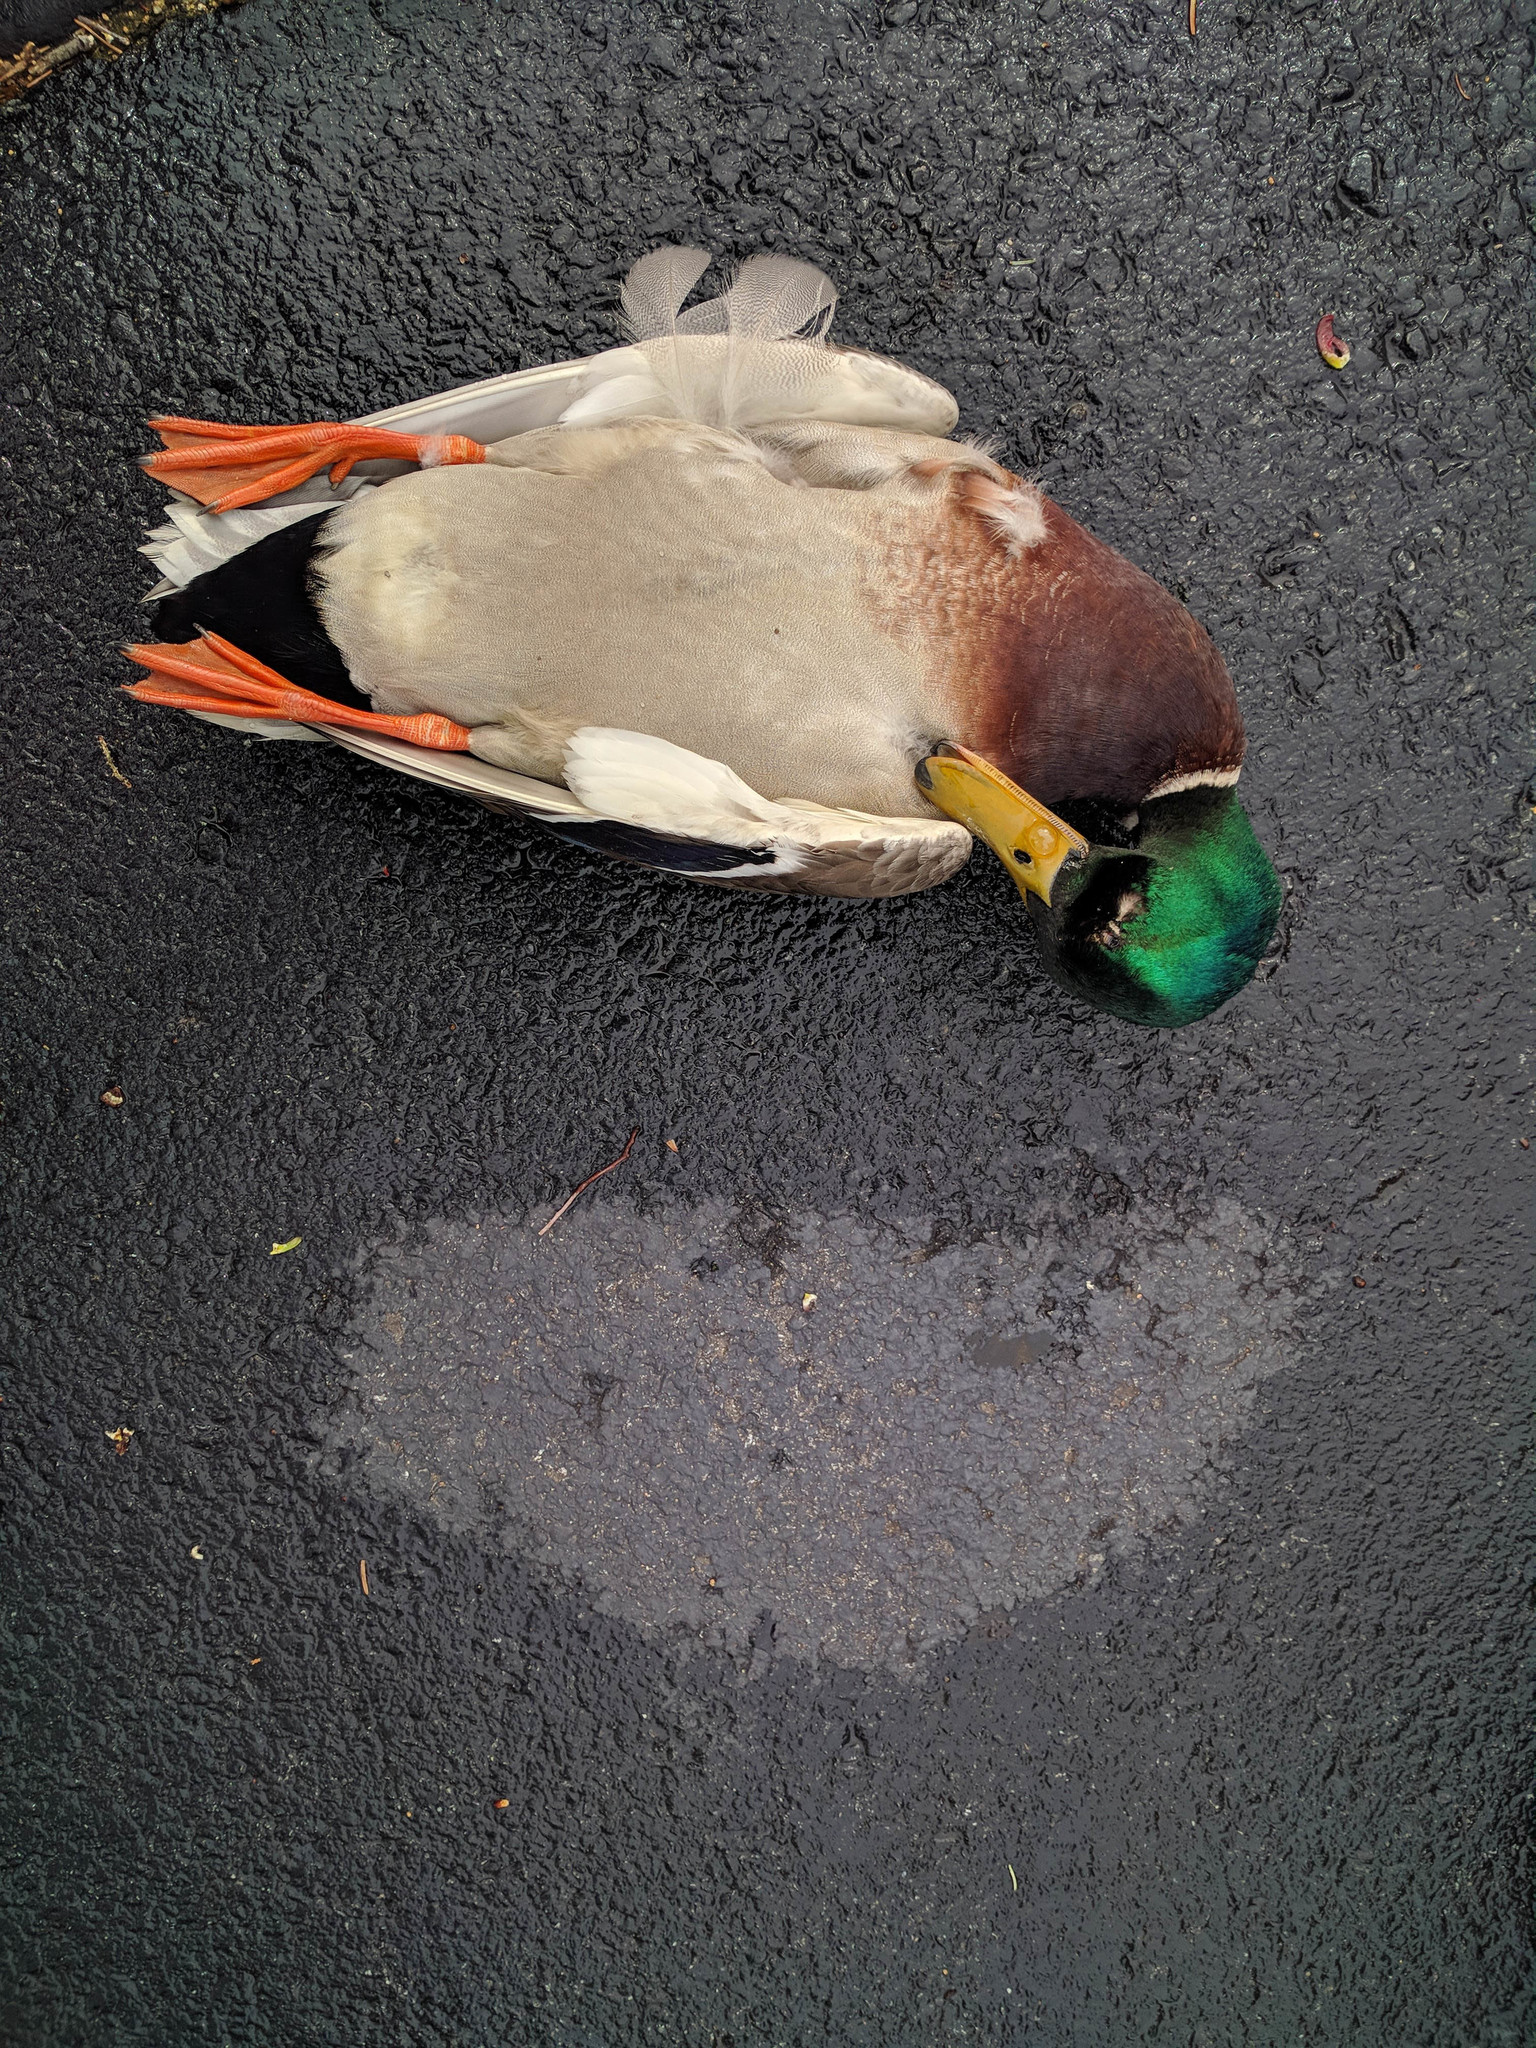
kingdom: Animalia
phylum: Chordata
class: Aves
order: Anseriformes
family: Anatidae
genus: Anas
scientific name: Anas platyrhynchos
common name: Mallard
